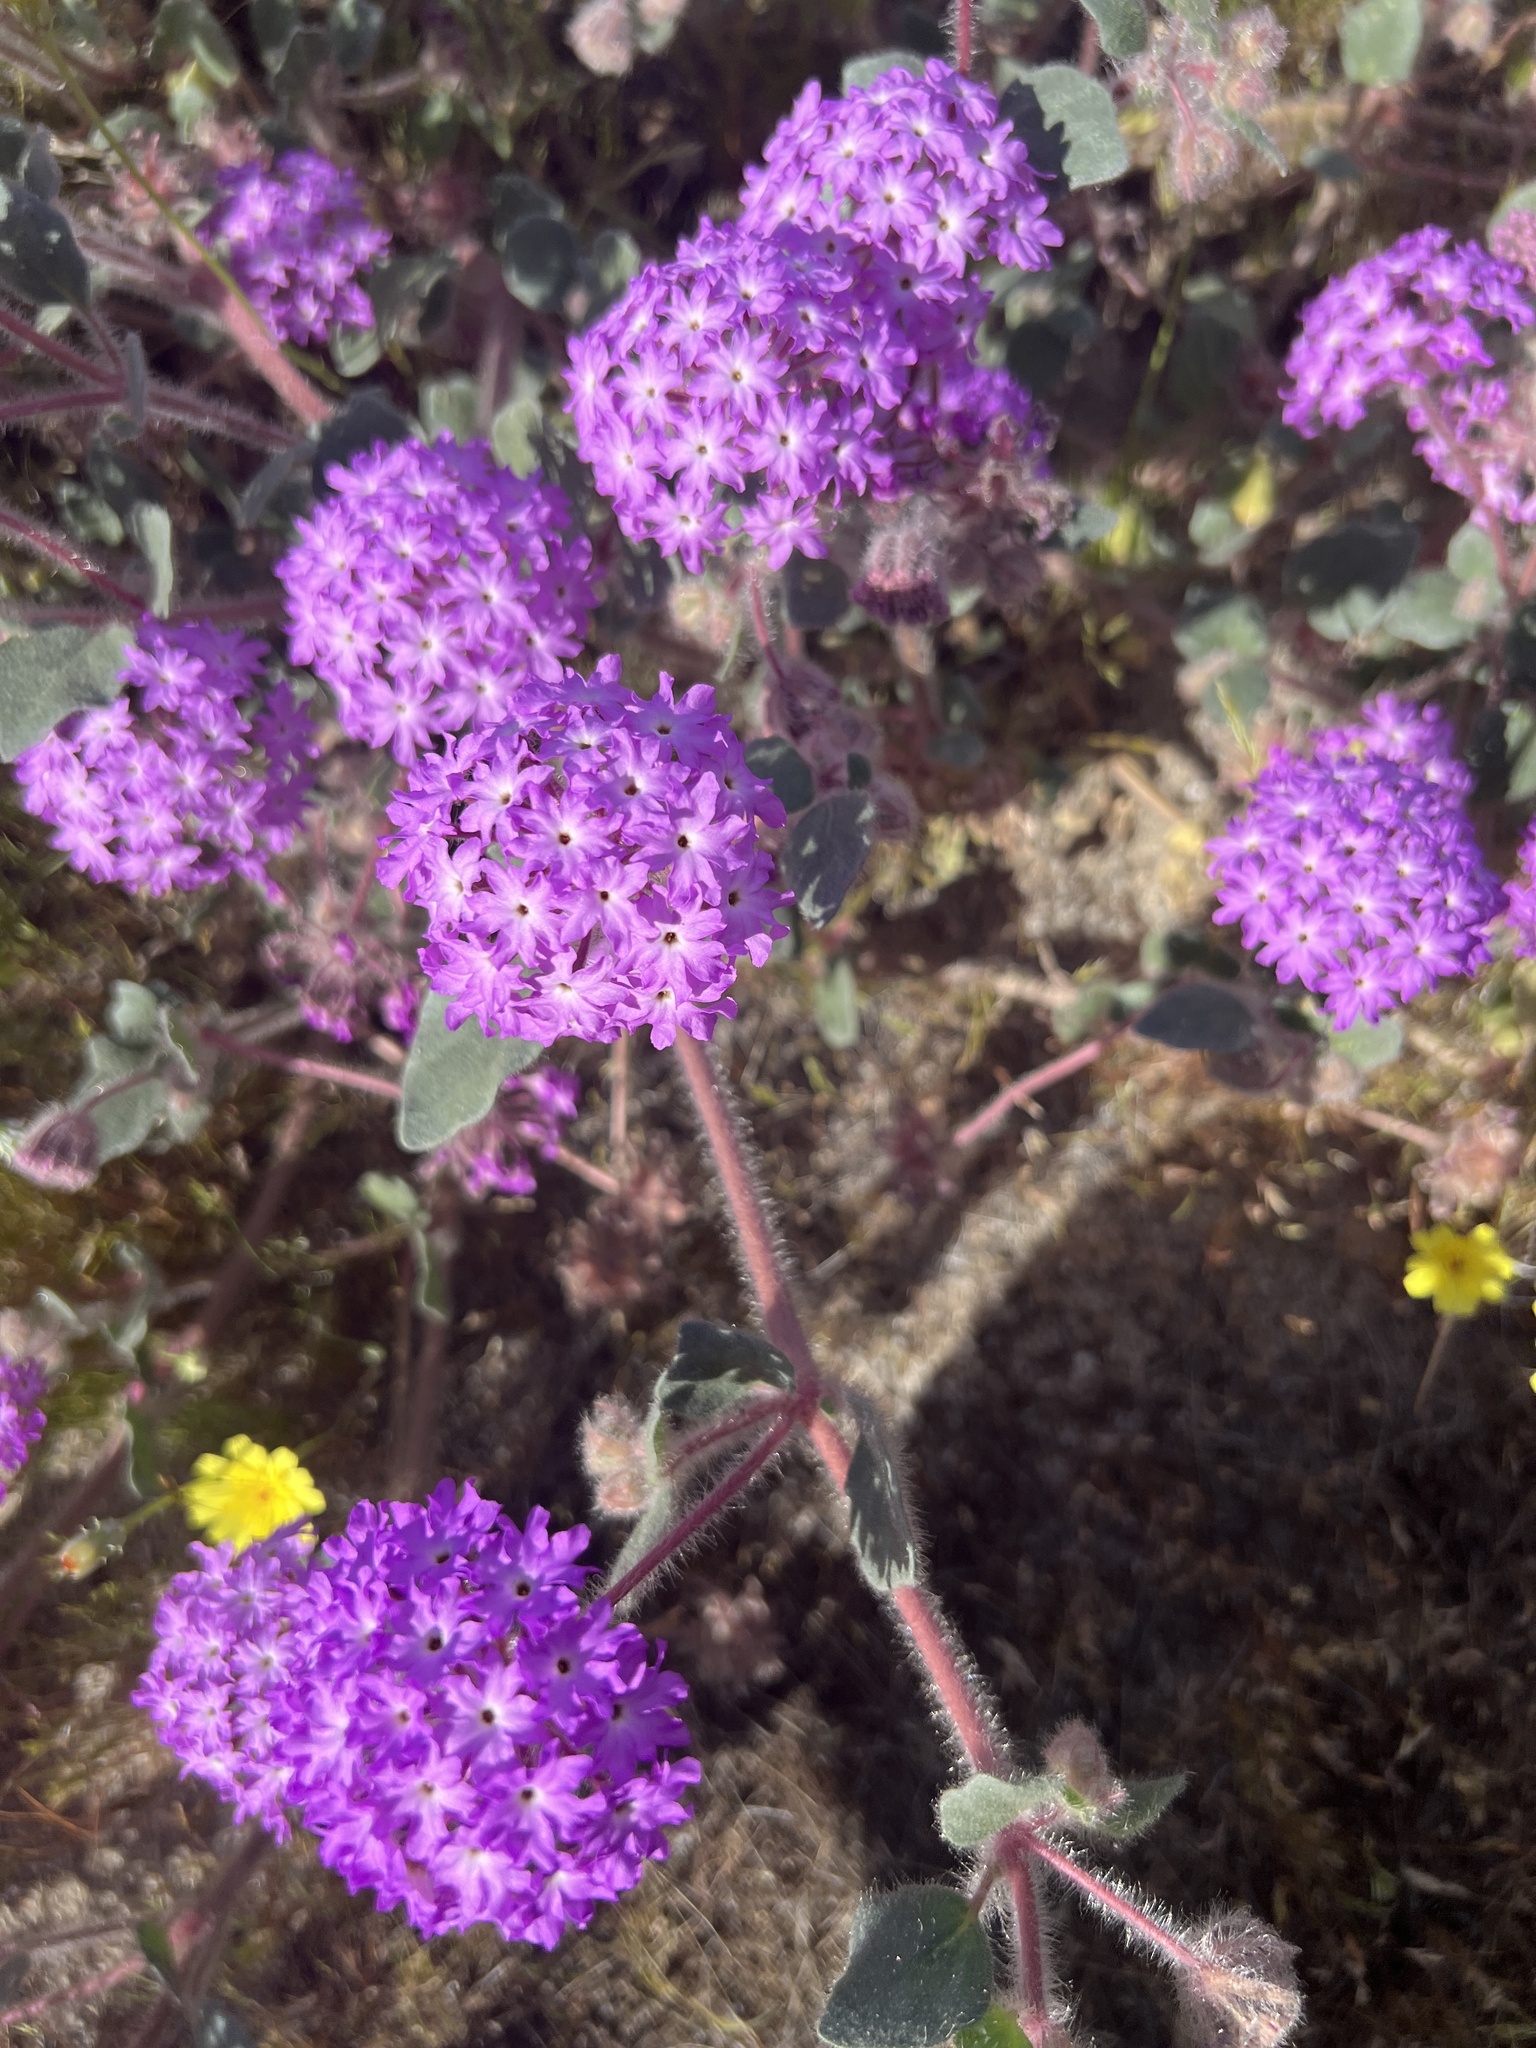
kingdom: Plantae
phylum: Tracheophyta
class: Magnoliopsida
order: Caryophyllales
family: Nyctaginaceae
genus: Abronia
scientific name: Abronia villosa
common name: Desert sand-verbena
